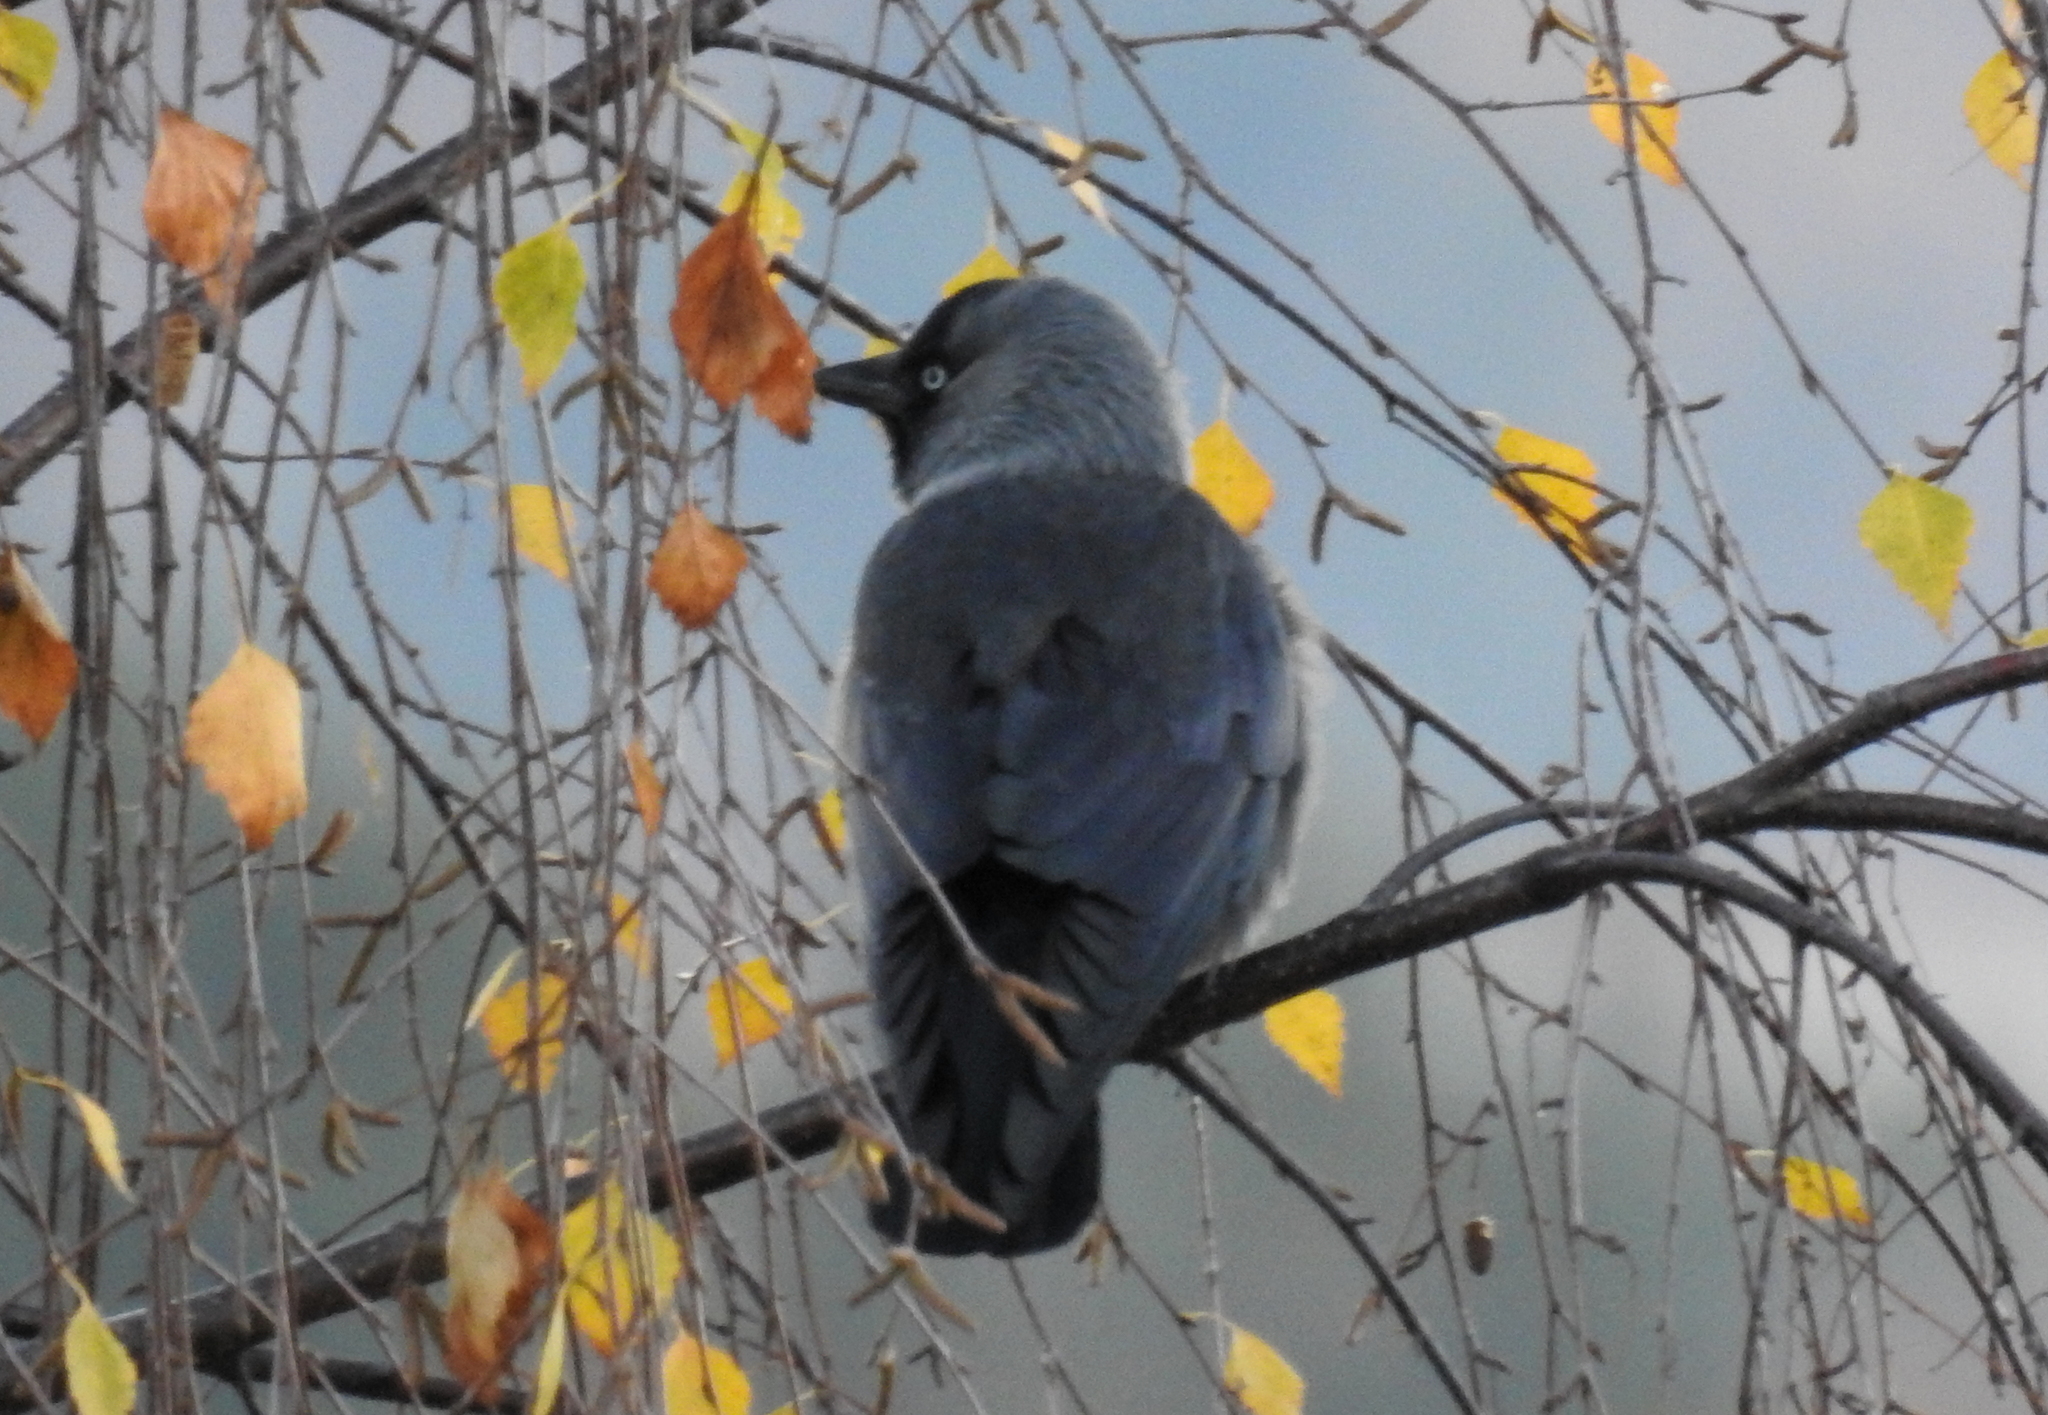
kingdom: Animalia
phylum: Chordata
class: Aves
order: Passeriformes
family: Corvidae
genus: Coloeus
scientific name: Coloeus monedula
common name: Western jackdaw
